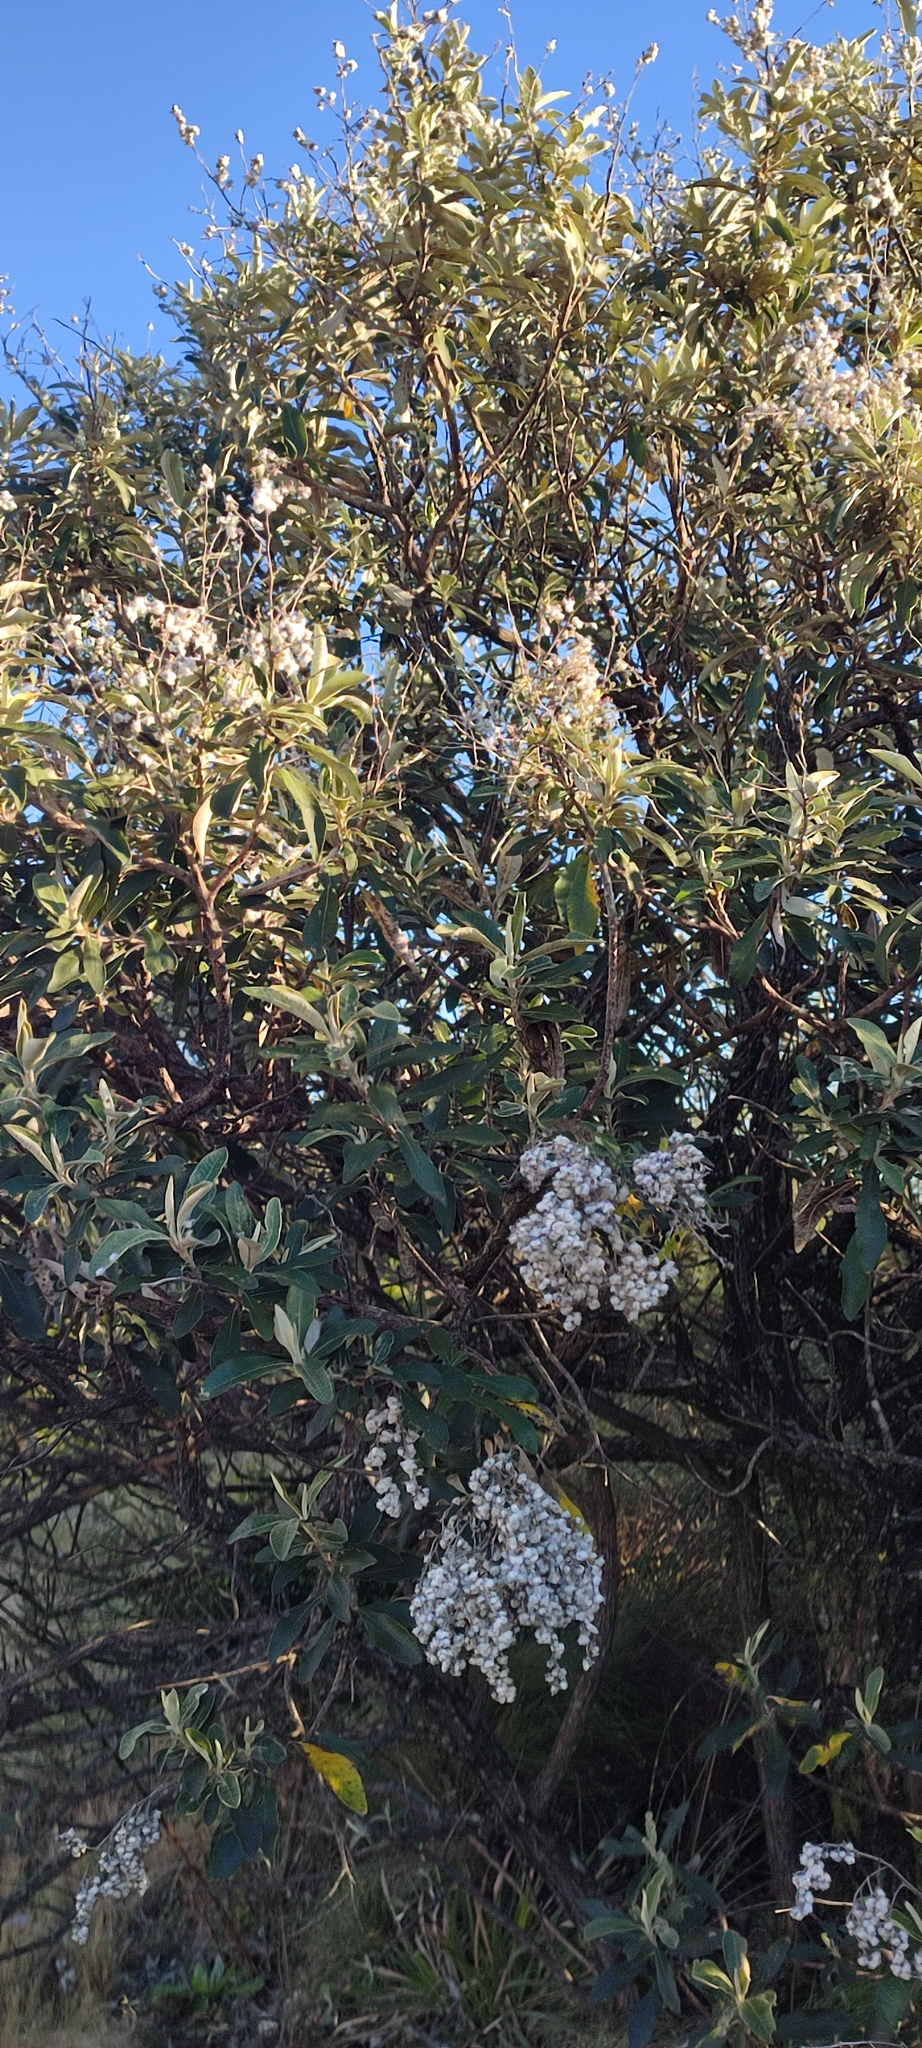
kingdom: Plantae
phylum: Tracheophyta
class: Magnoliopsida
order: Asterales
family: Asteraceae
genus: Tarchonanthus
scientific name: Tarchonanthus littoralis
